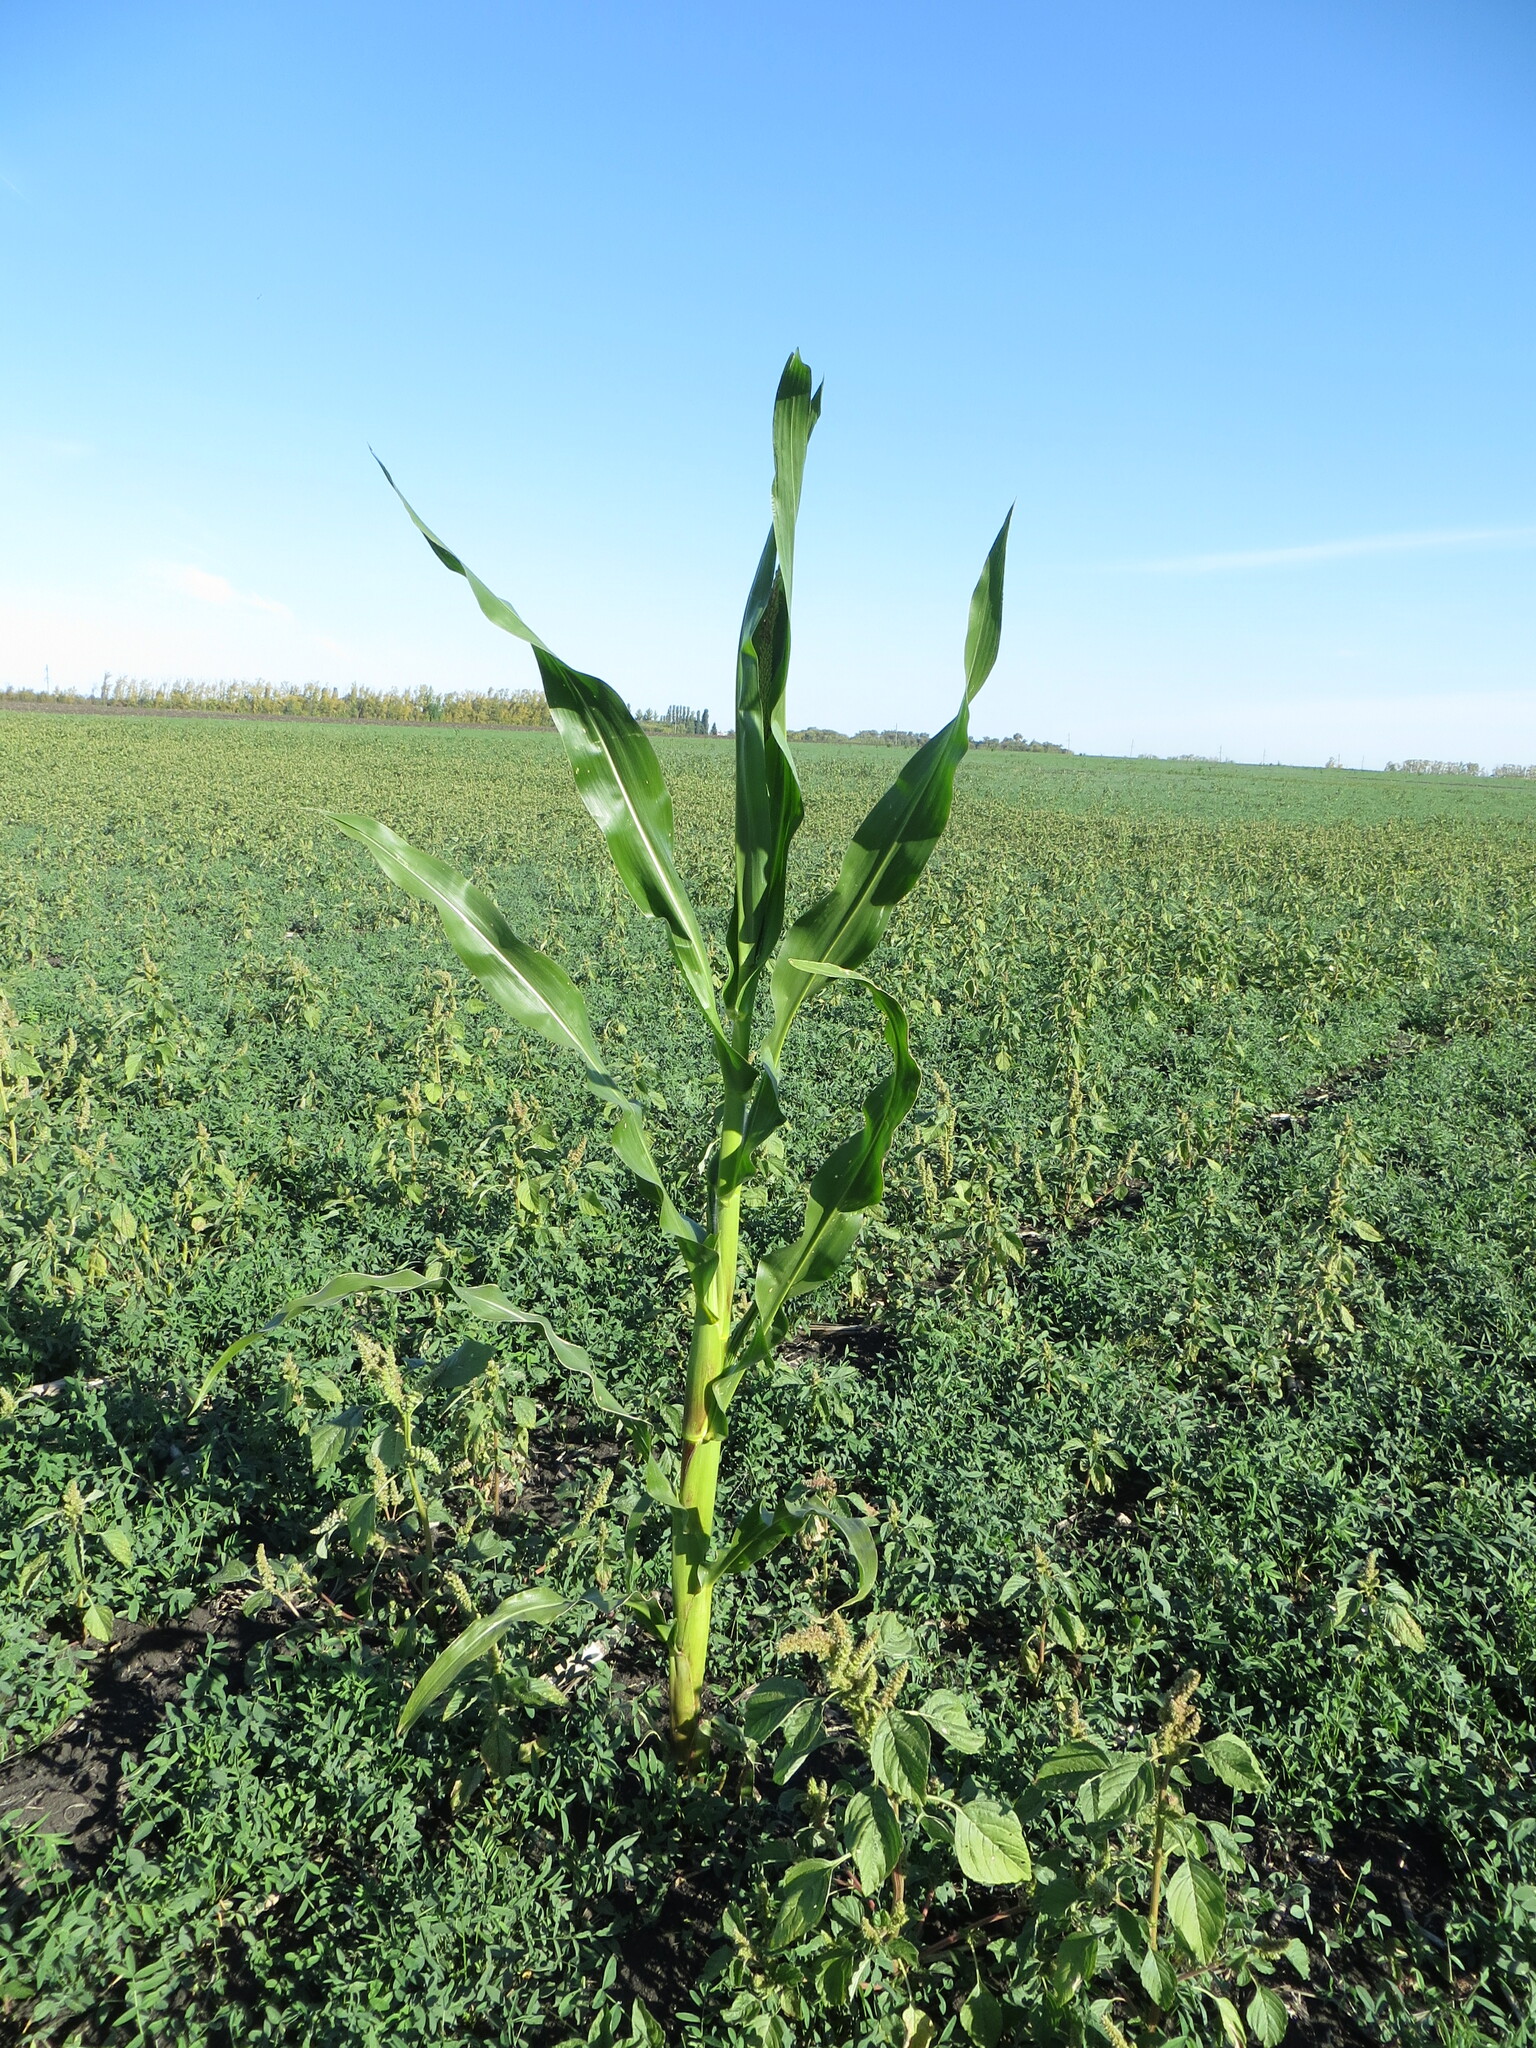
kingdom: Plantae
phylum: Tracheophyta
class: Liliopsida
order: Poales
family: Poaceae
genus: Zea
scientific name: Zea mays
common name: Maize
